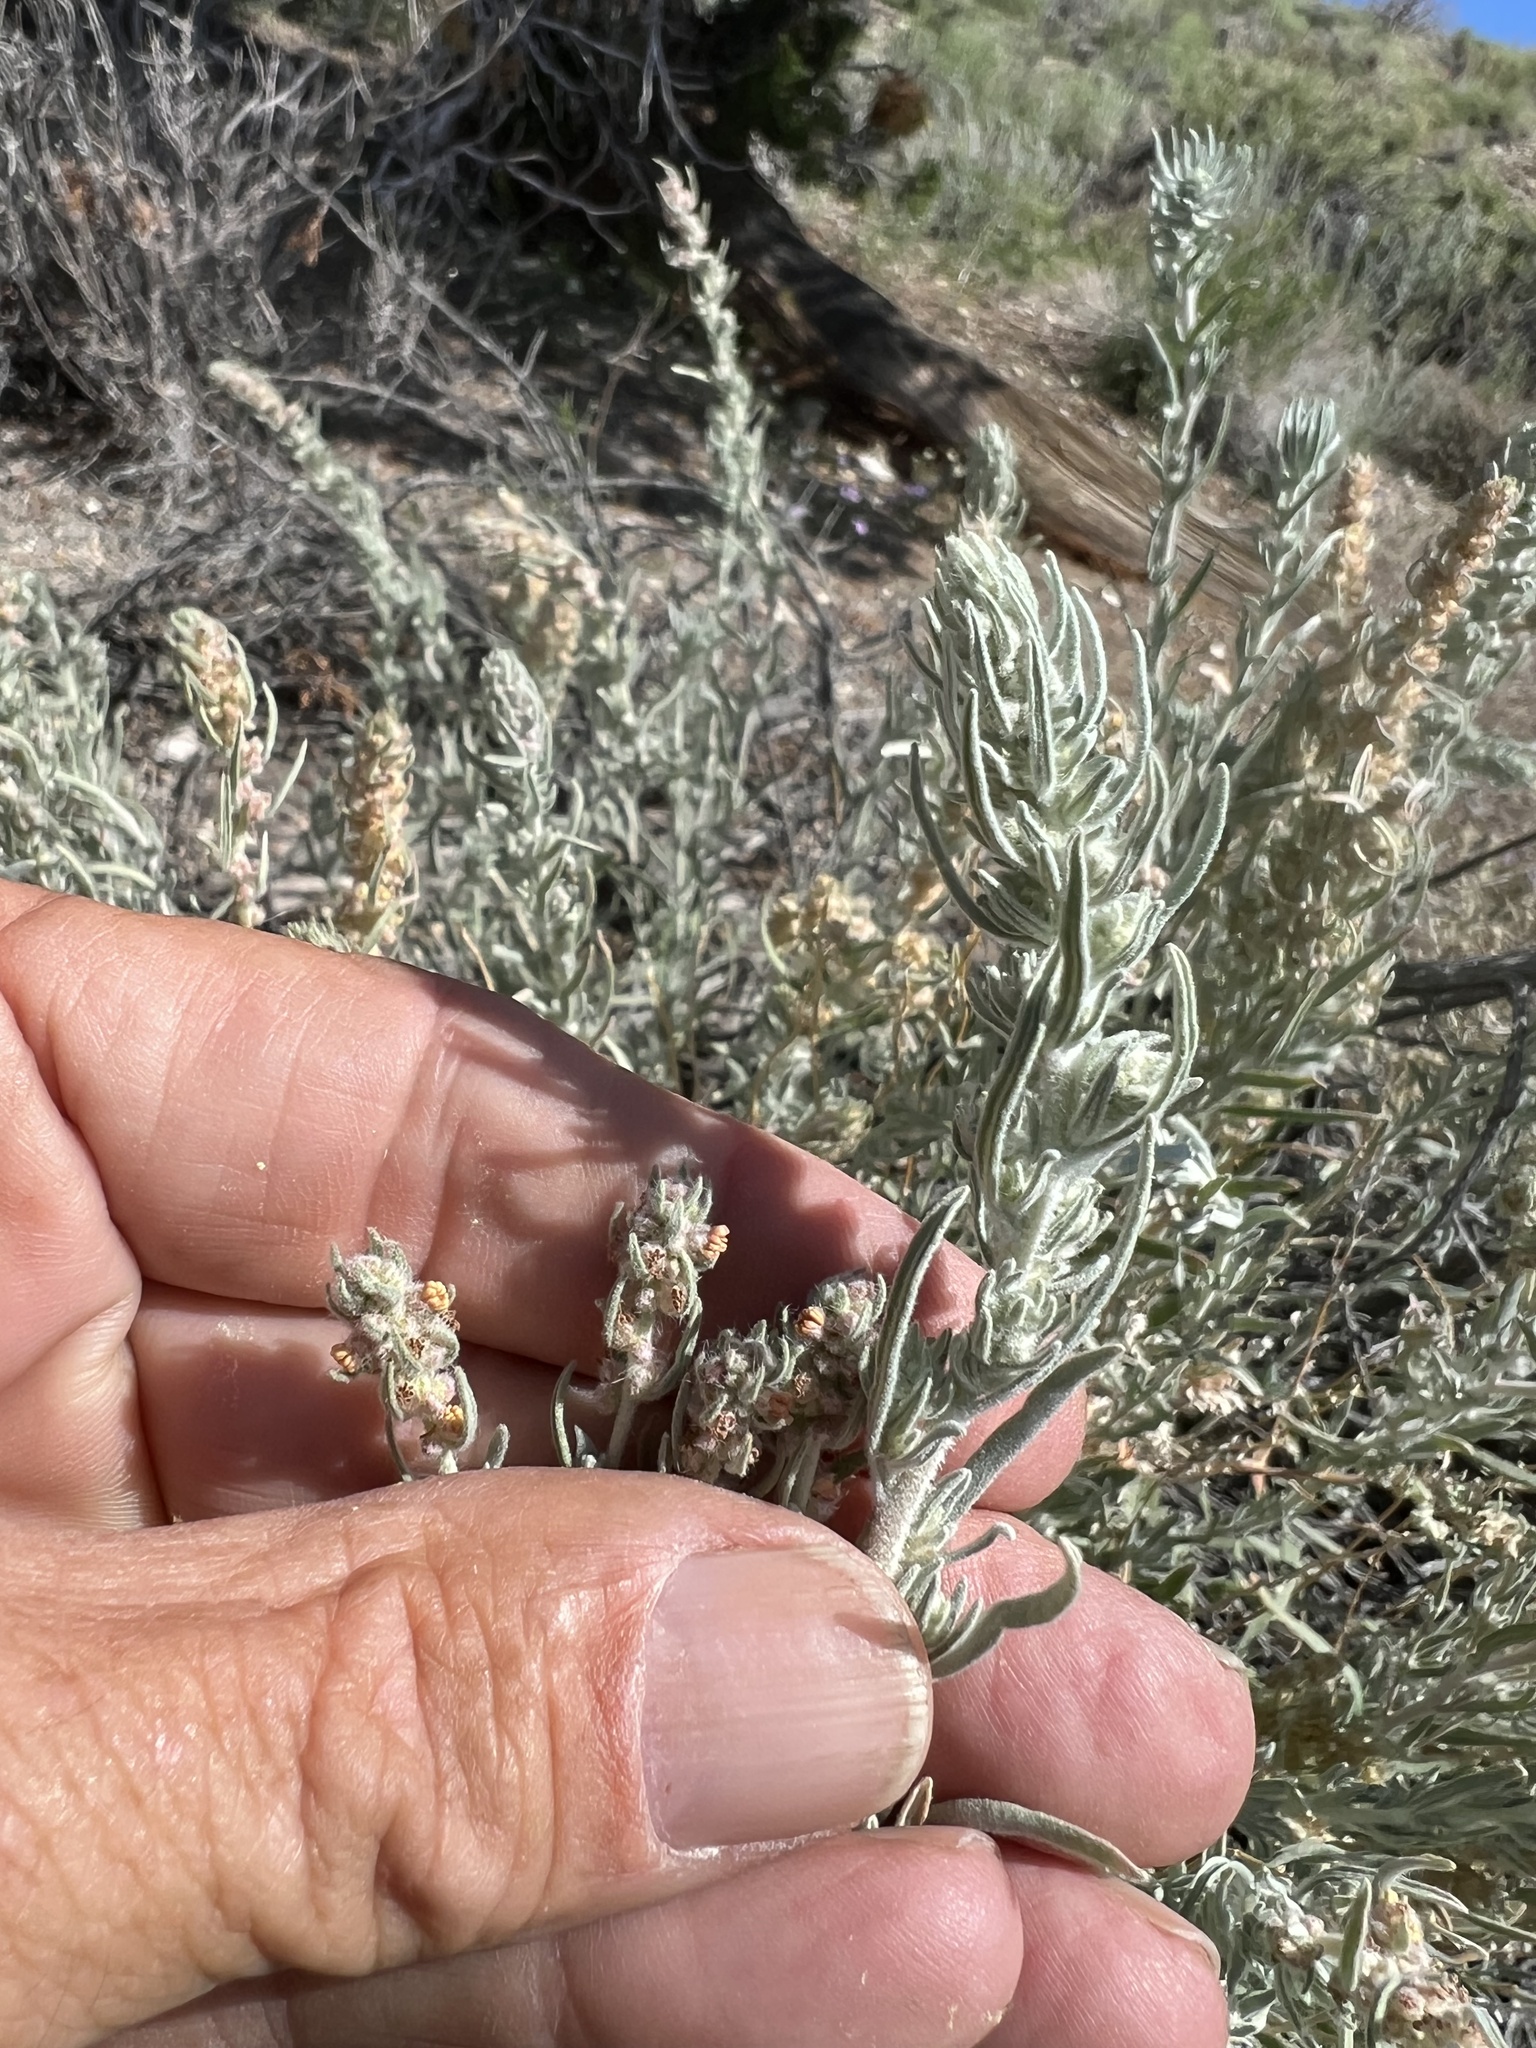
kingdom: Plantae
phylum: Tracheophyta
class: Magnoliopsida
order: Caryophyllales
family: Amaranthaceae
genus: Krascheninnikovia
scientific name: Krascheninnikovia lanata
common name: Winterfat
